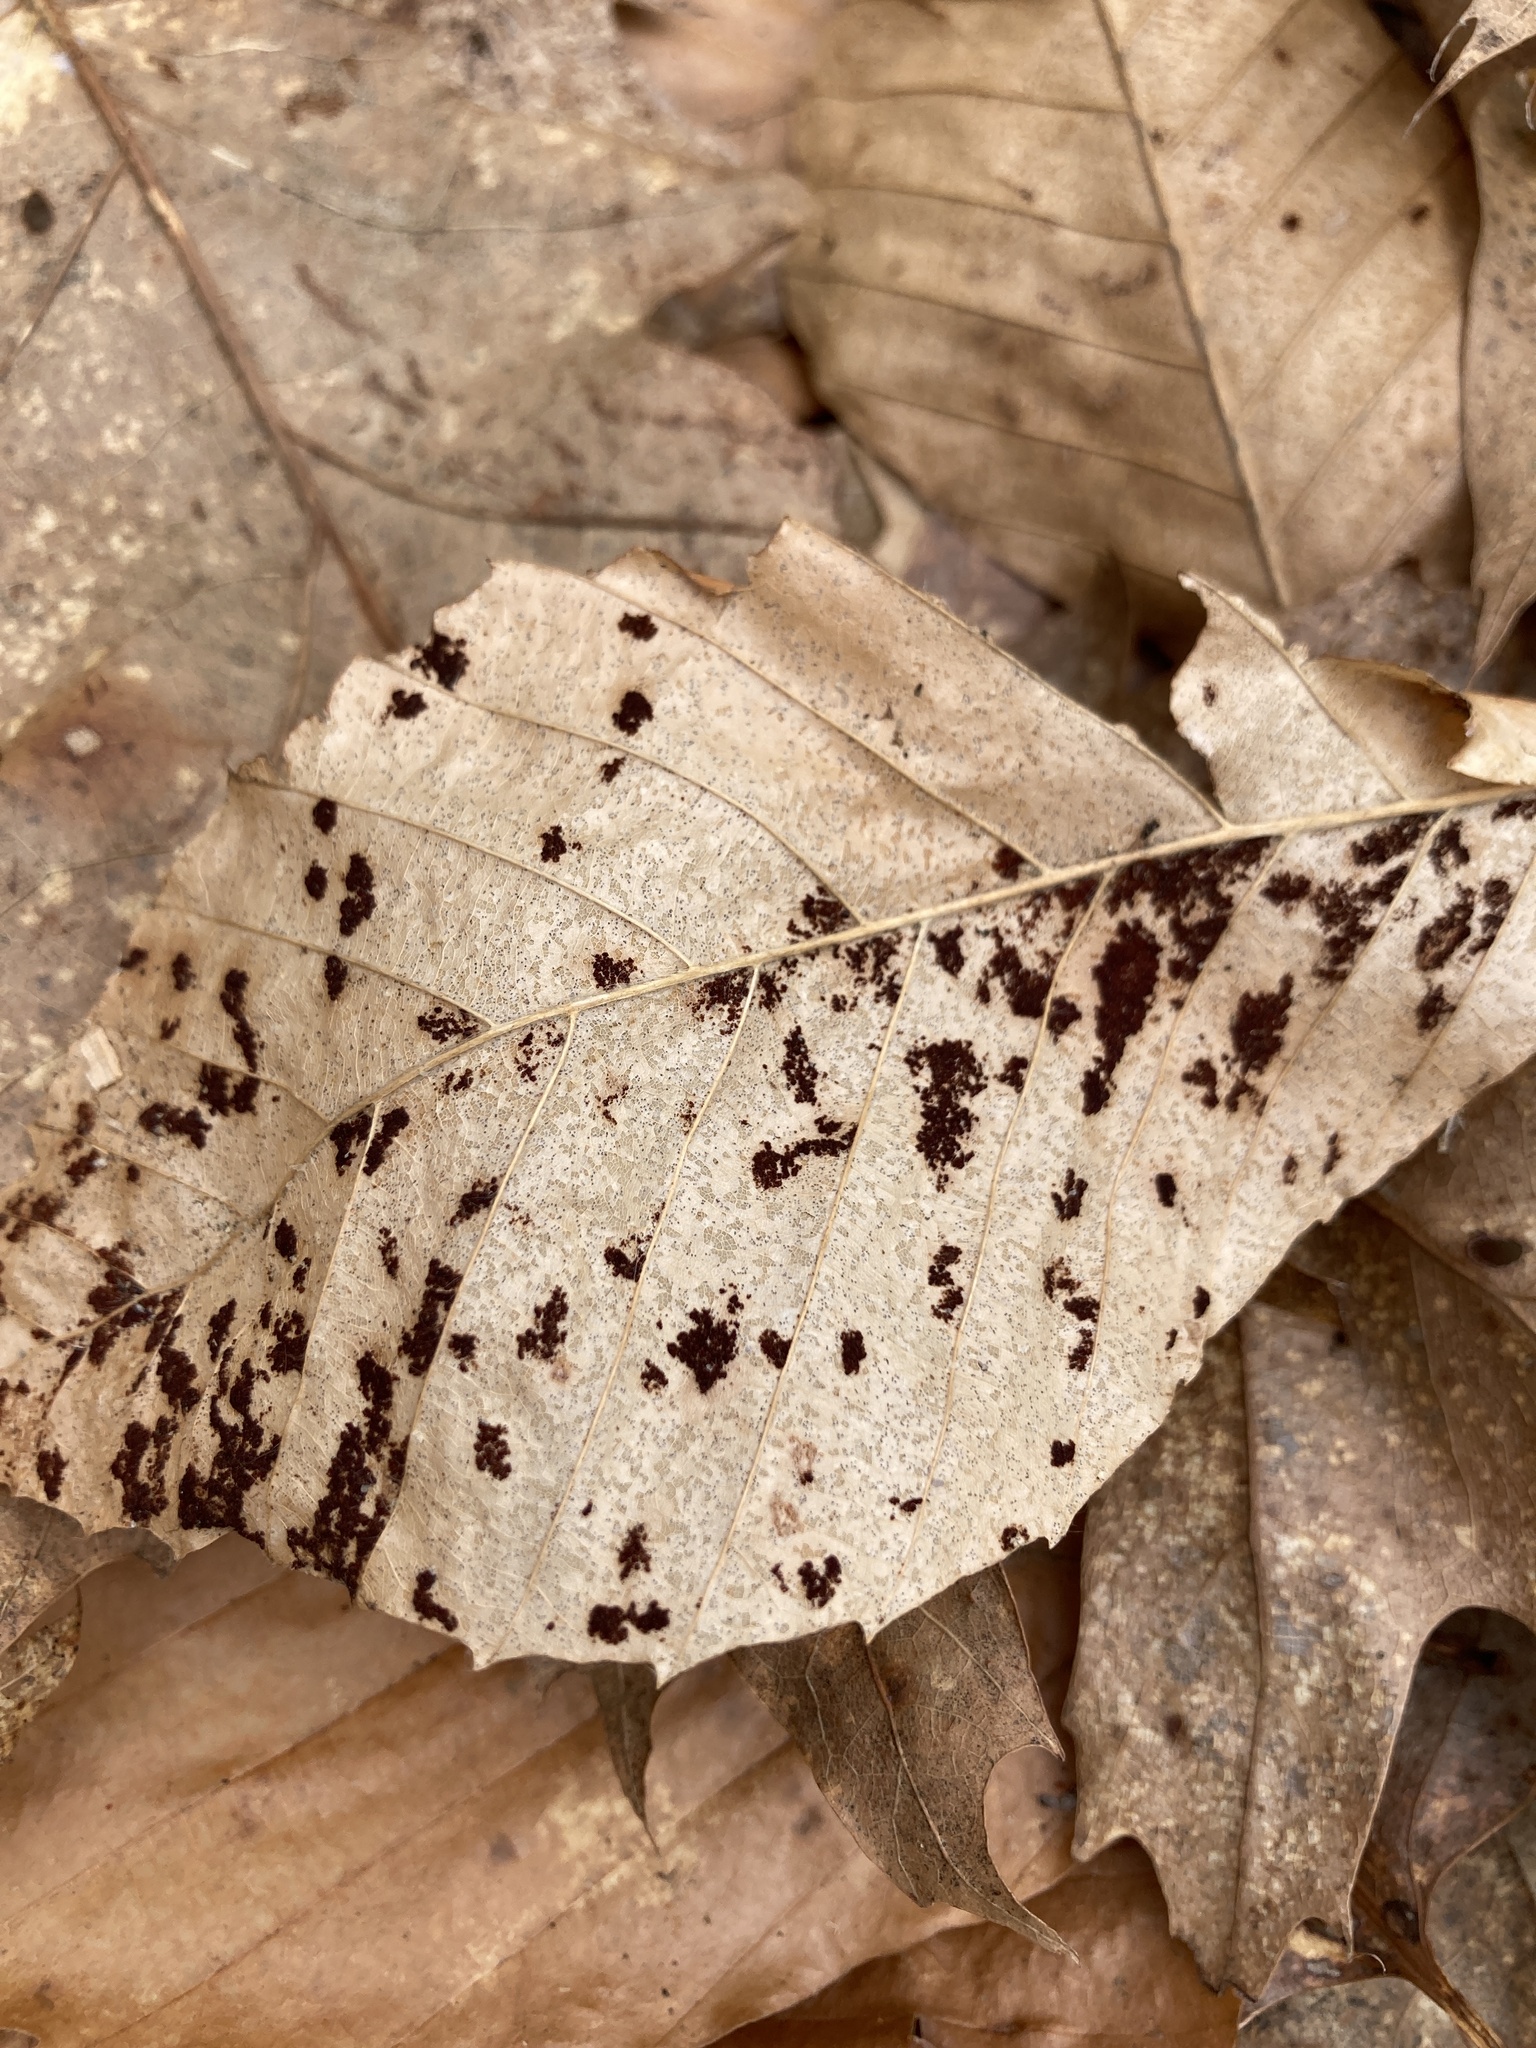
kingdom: Animalia
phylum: Arthropoda
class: Arachnida
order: Trombidiformes
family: Eriophyidae
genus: Acalitus
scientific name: Acalitus
